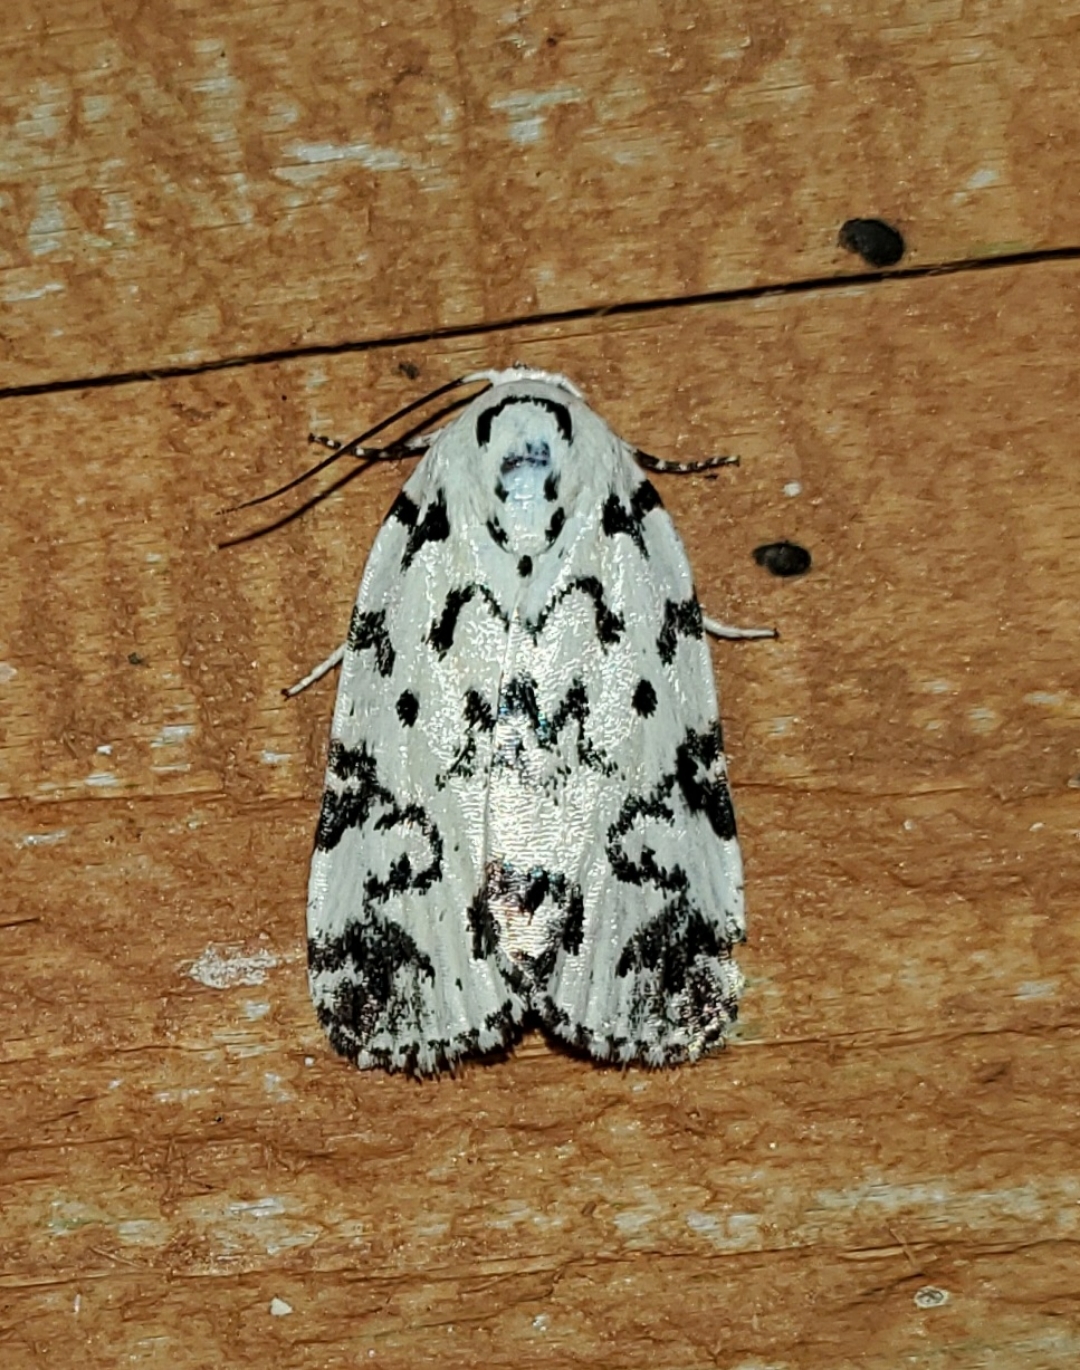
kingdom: Animalia
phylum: Arthropoda
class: Insecta
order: Lepidoptera
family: Noctuidae
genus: Polygrammate
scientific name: Polygrammate hebraeicum
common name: Hebrew moth
